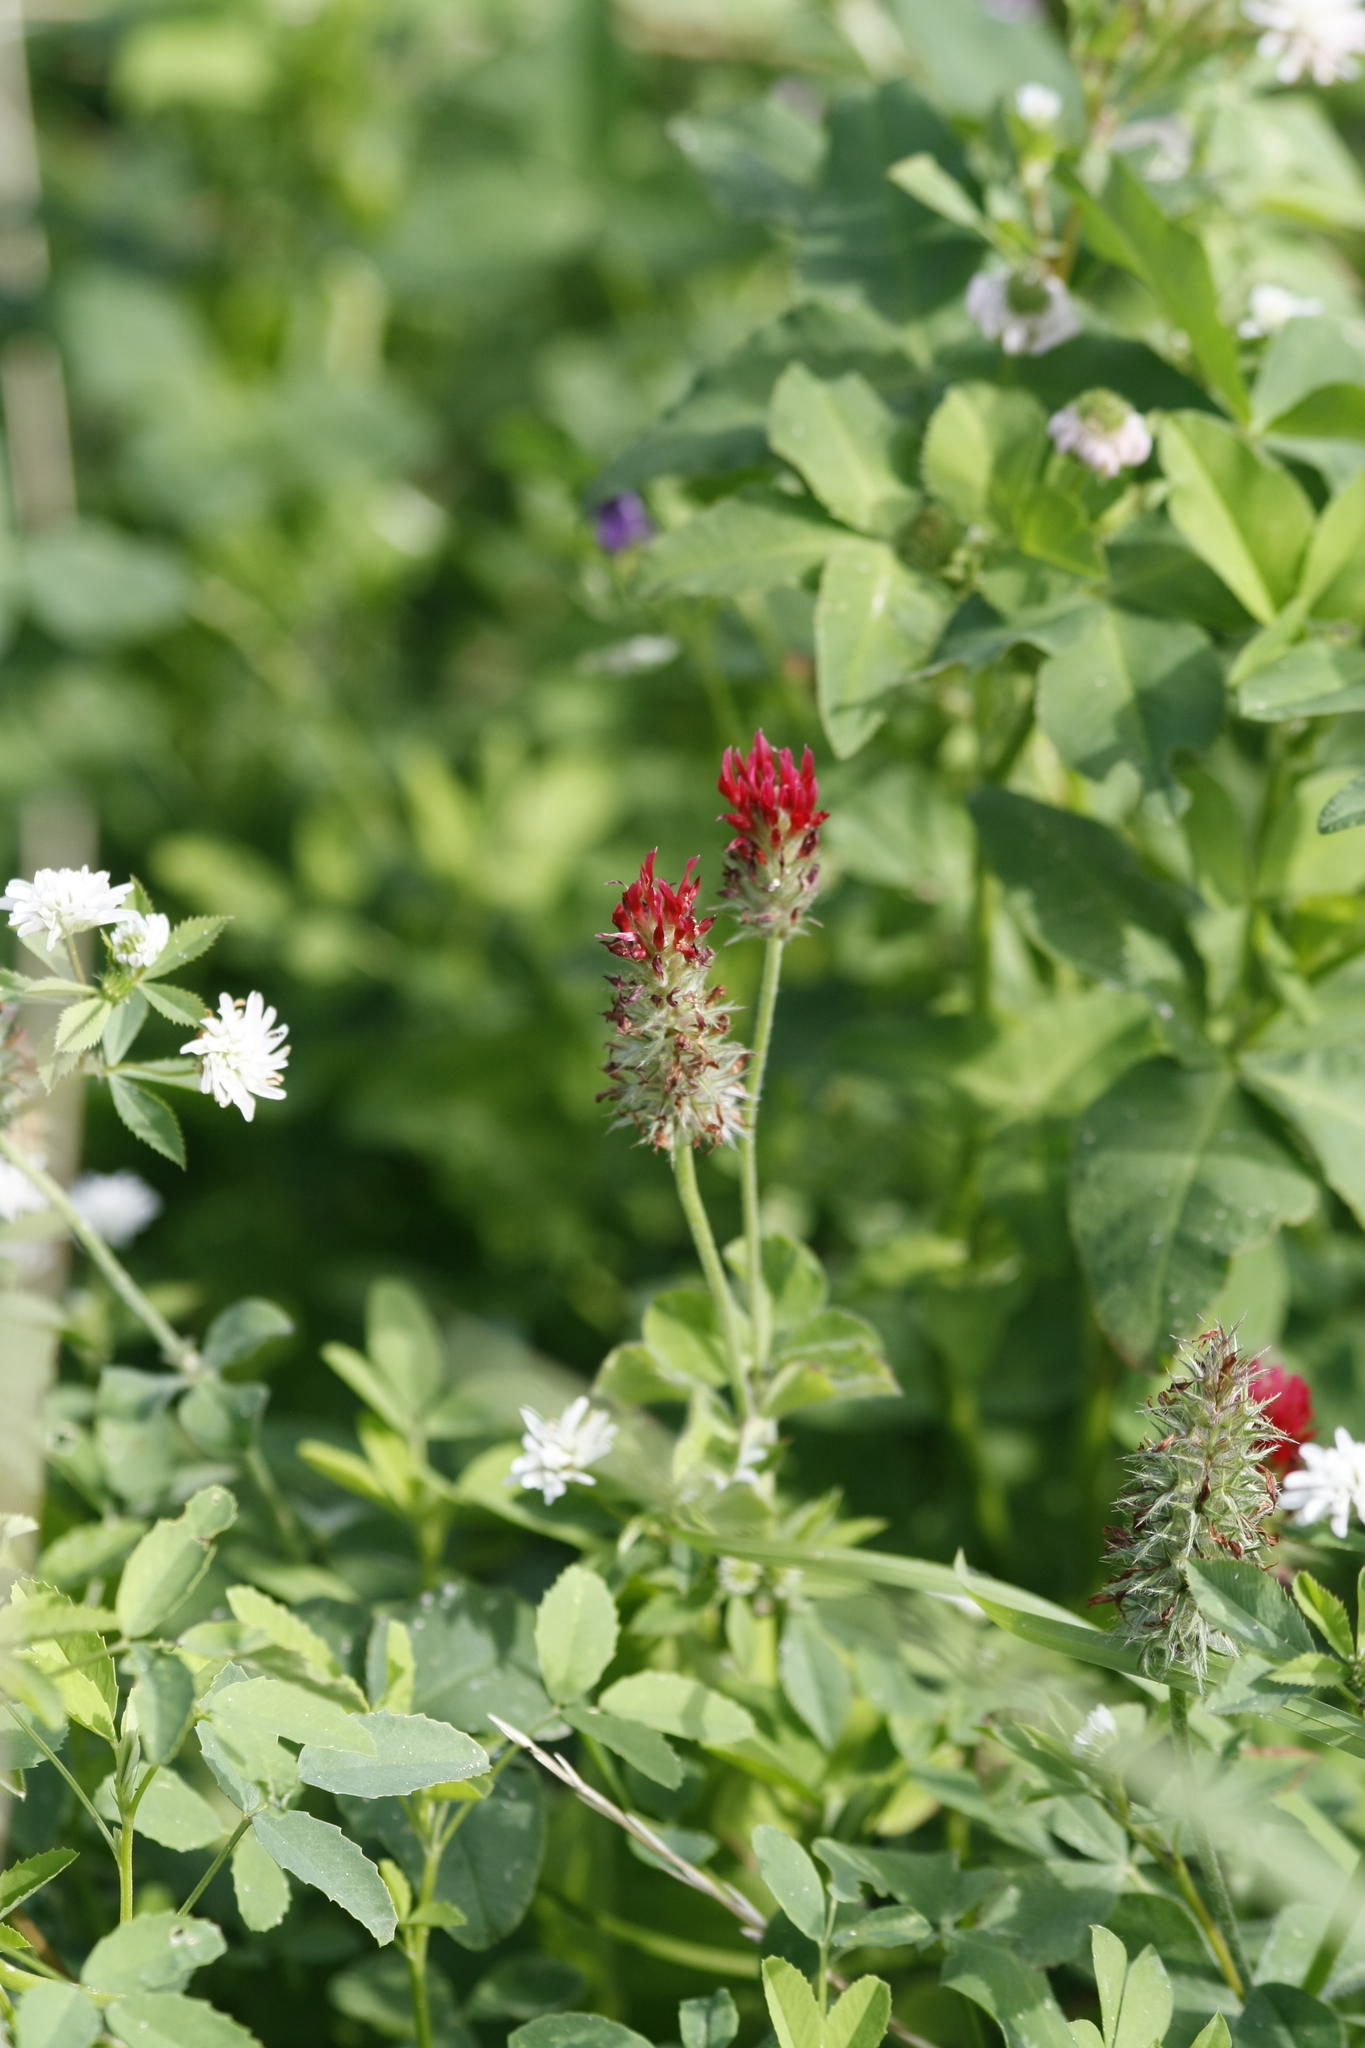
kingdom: Plantae
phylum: Tracheophyta
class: Magnoliopsida
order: Fabales
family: Fabaceae
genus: Trifolium
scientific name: Trifolium incarnatum
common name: Crimson clover
